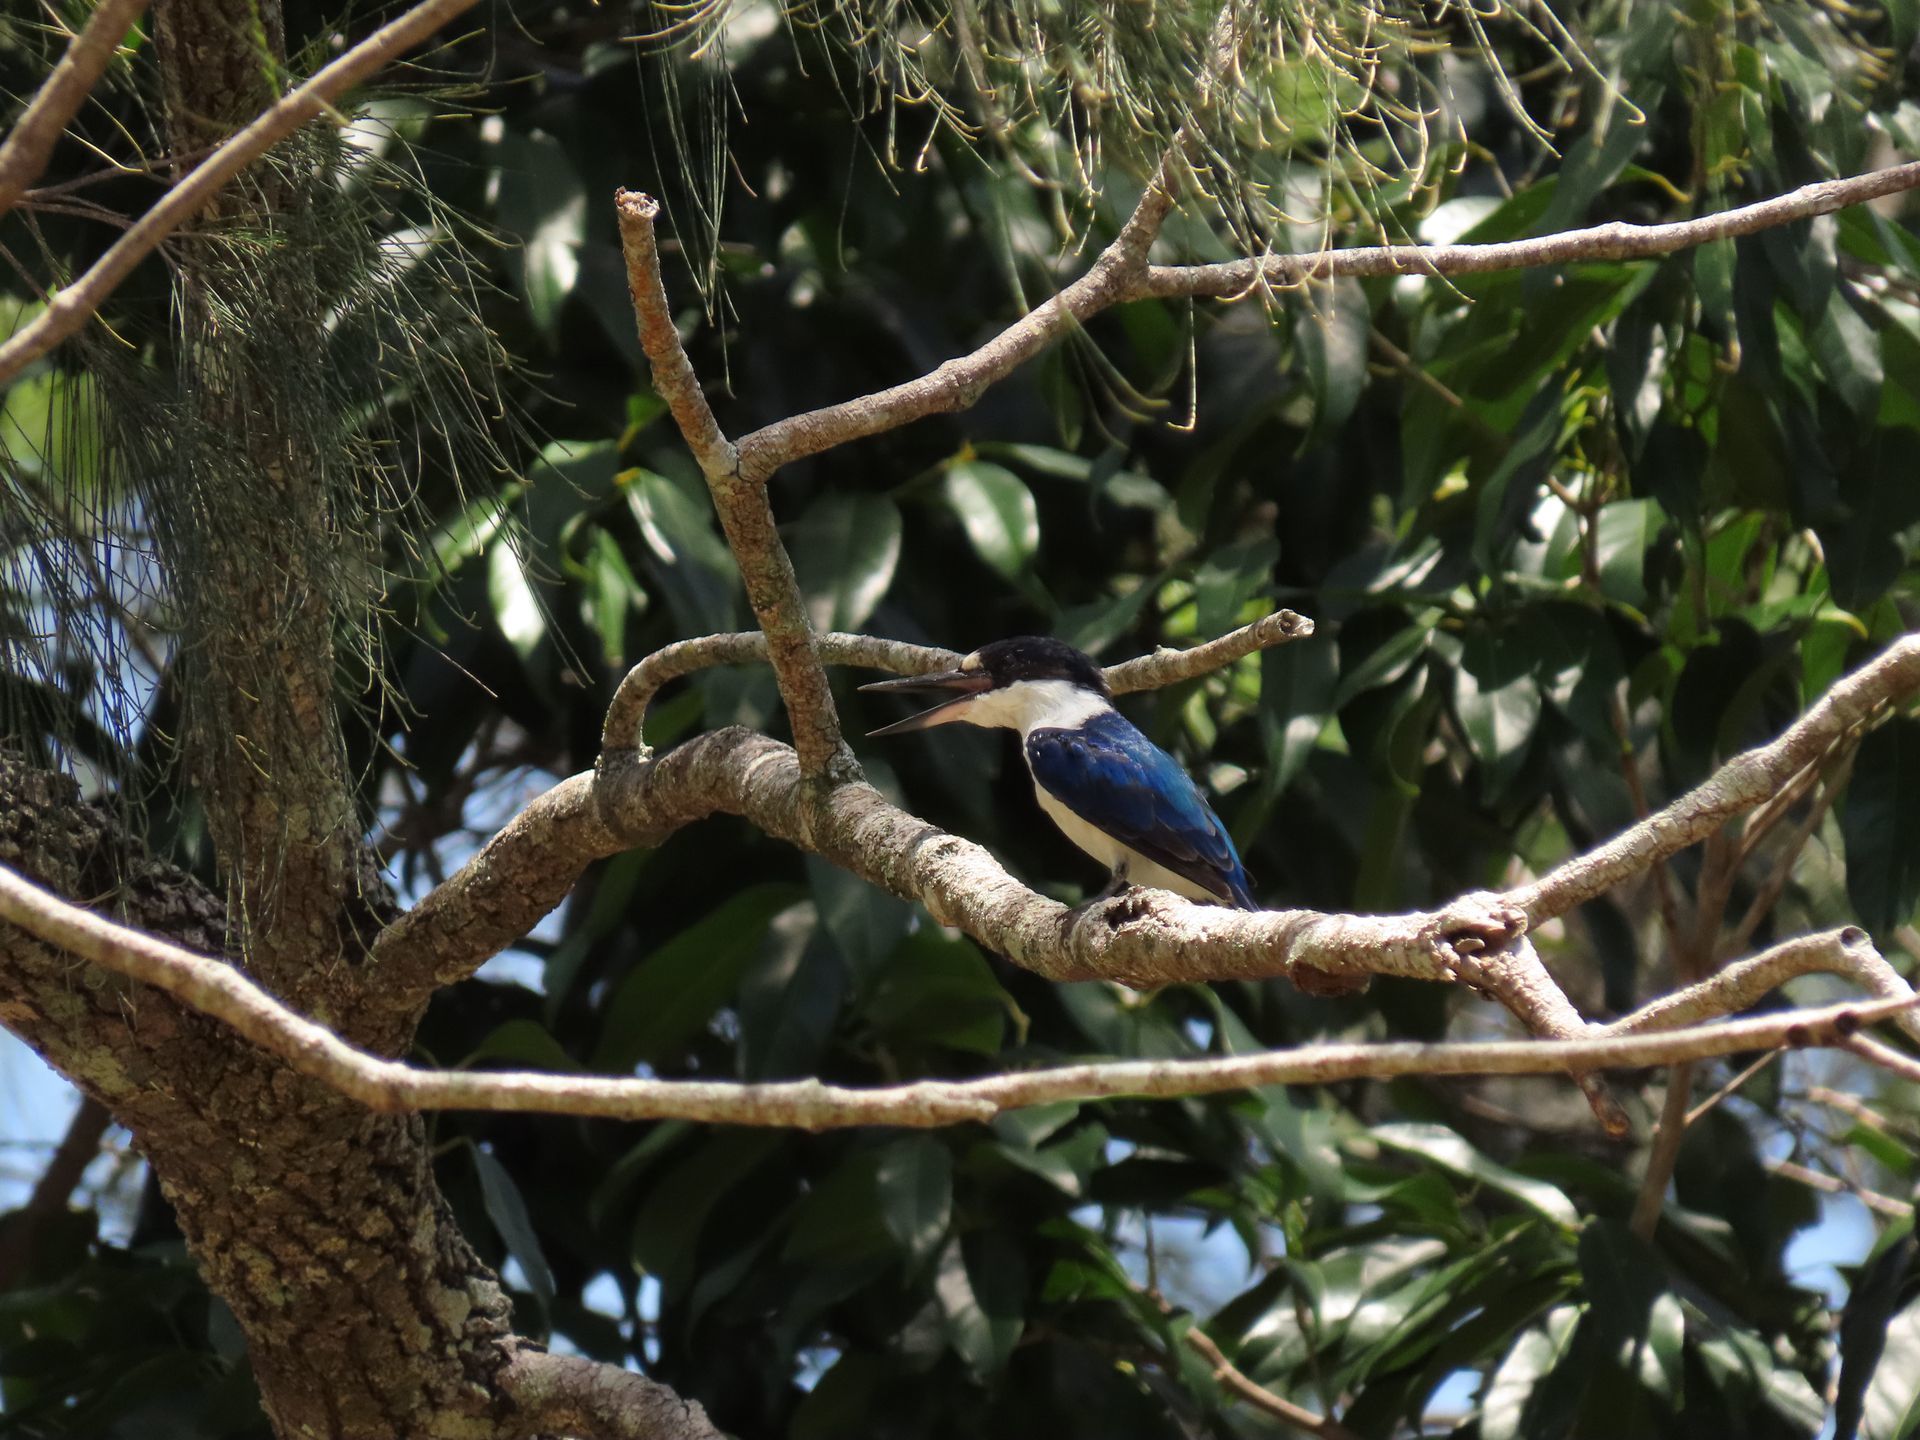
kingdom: Animalia
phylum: Chordata
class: Aves
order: Coraciiformes
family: Alcedinidae
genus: Todiramphus
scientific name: Todiramphus macleayii
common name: Forest kingfisher
